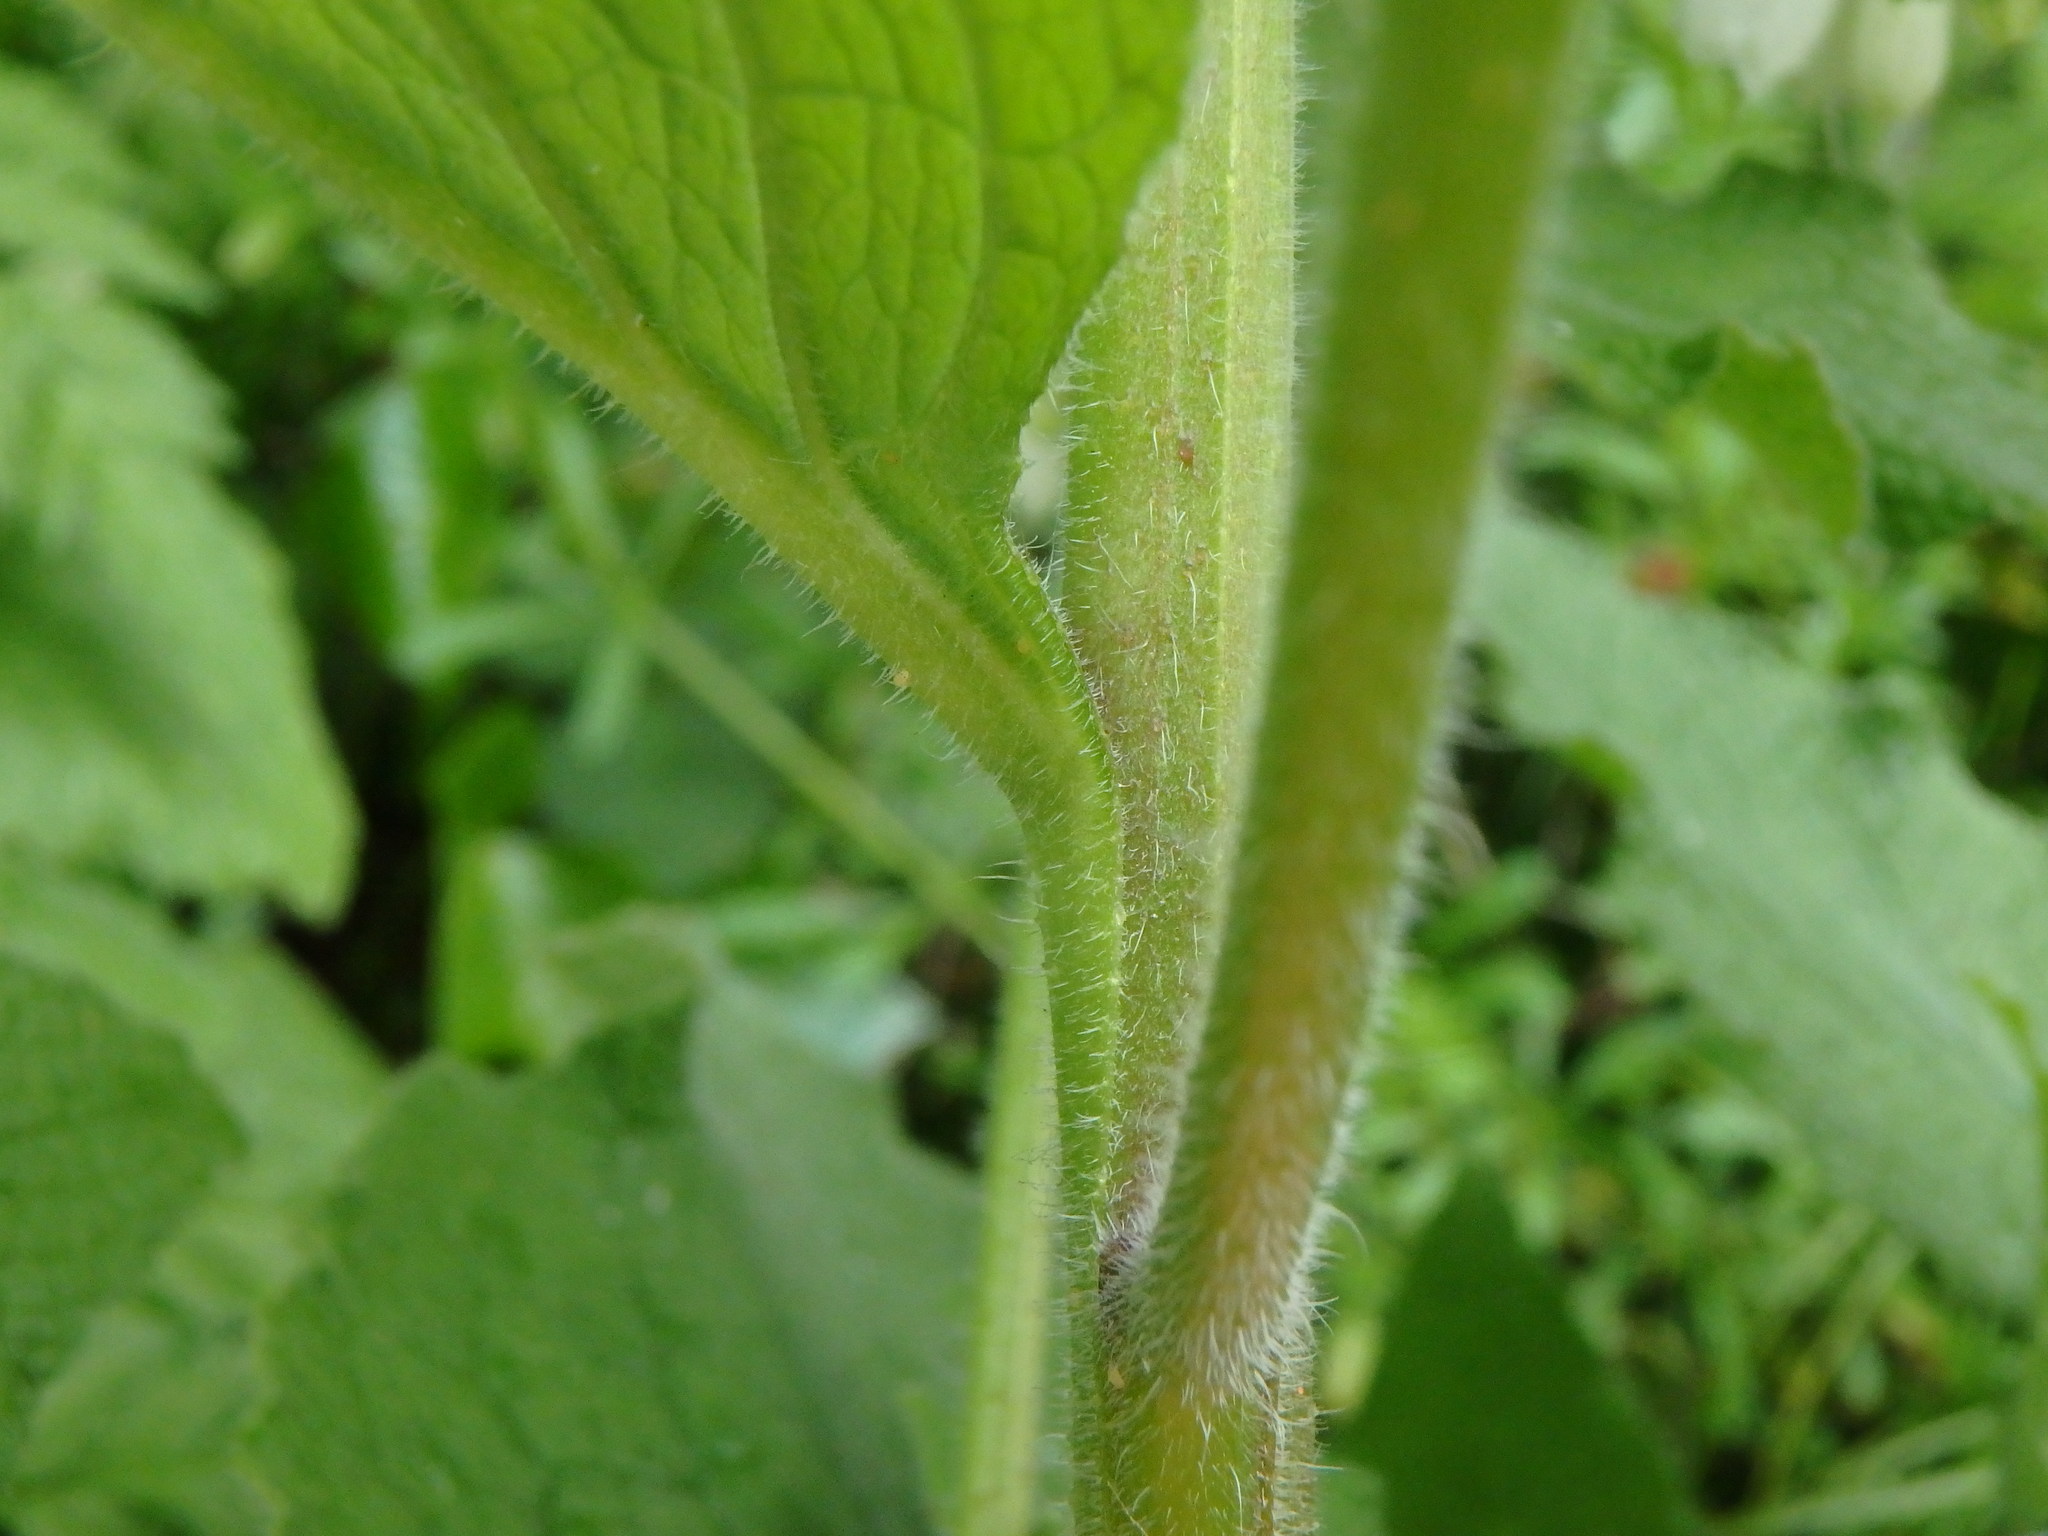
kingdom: Plantae
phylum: Tracheophyta
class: Magnoliopsida
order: Boraginales
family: Boraginaceae
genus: Symphytum
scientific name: Symphytum orientale
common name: White comfrey
